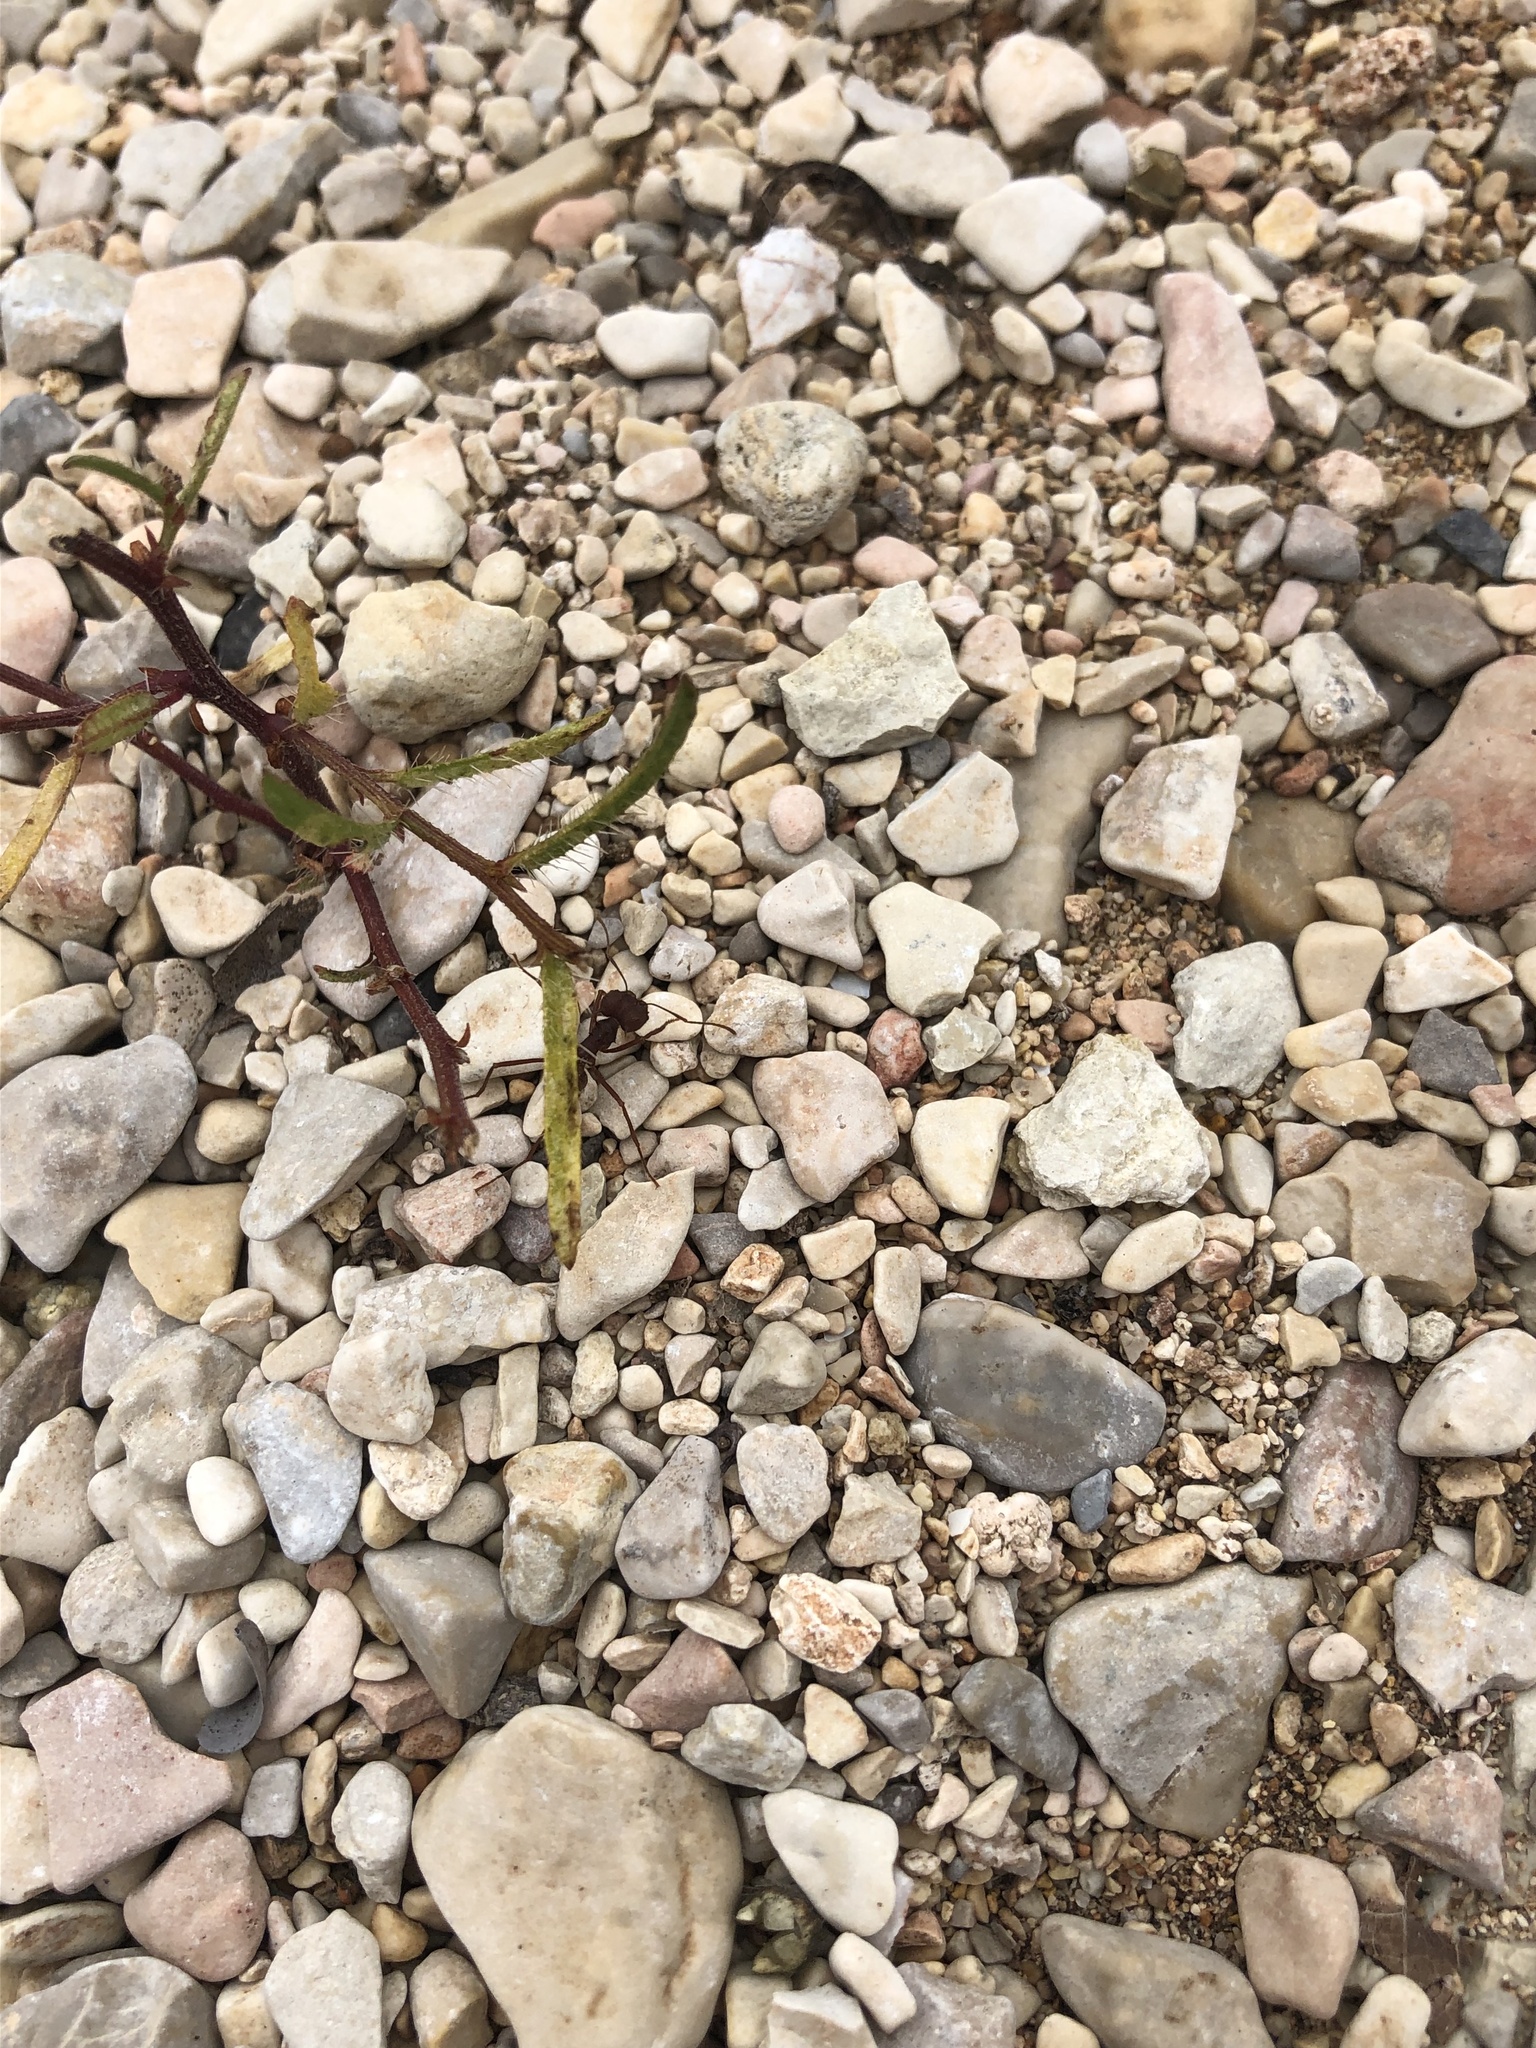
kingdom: Animalia
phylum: Arthropoda
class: Insecta
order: Hymenoptera
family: Formicidae
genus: Atta
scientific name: Atta texana
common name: Texas leafcutting ant
